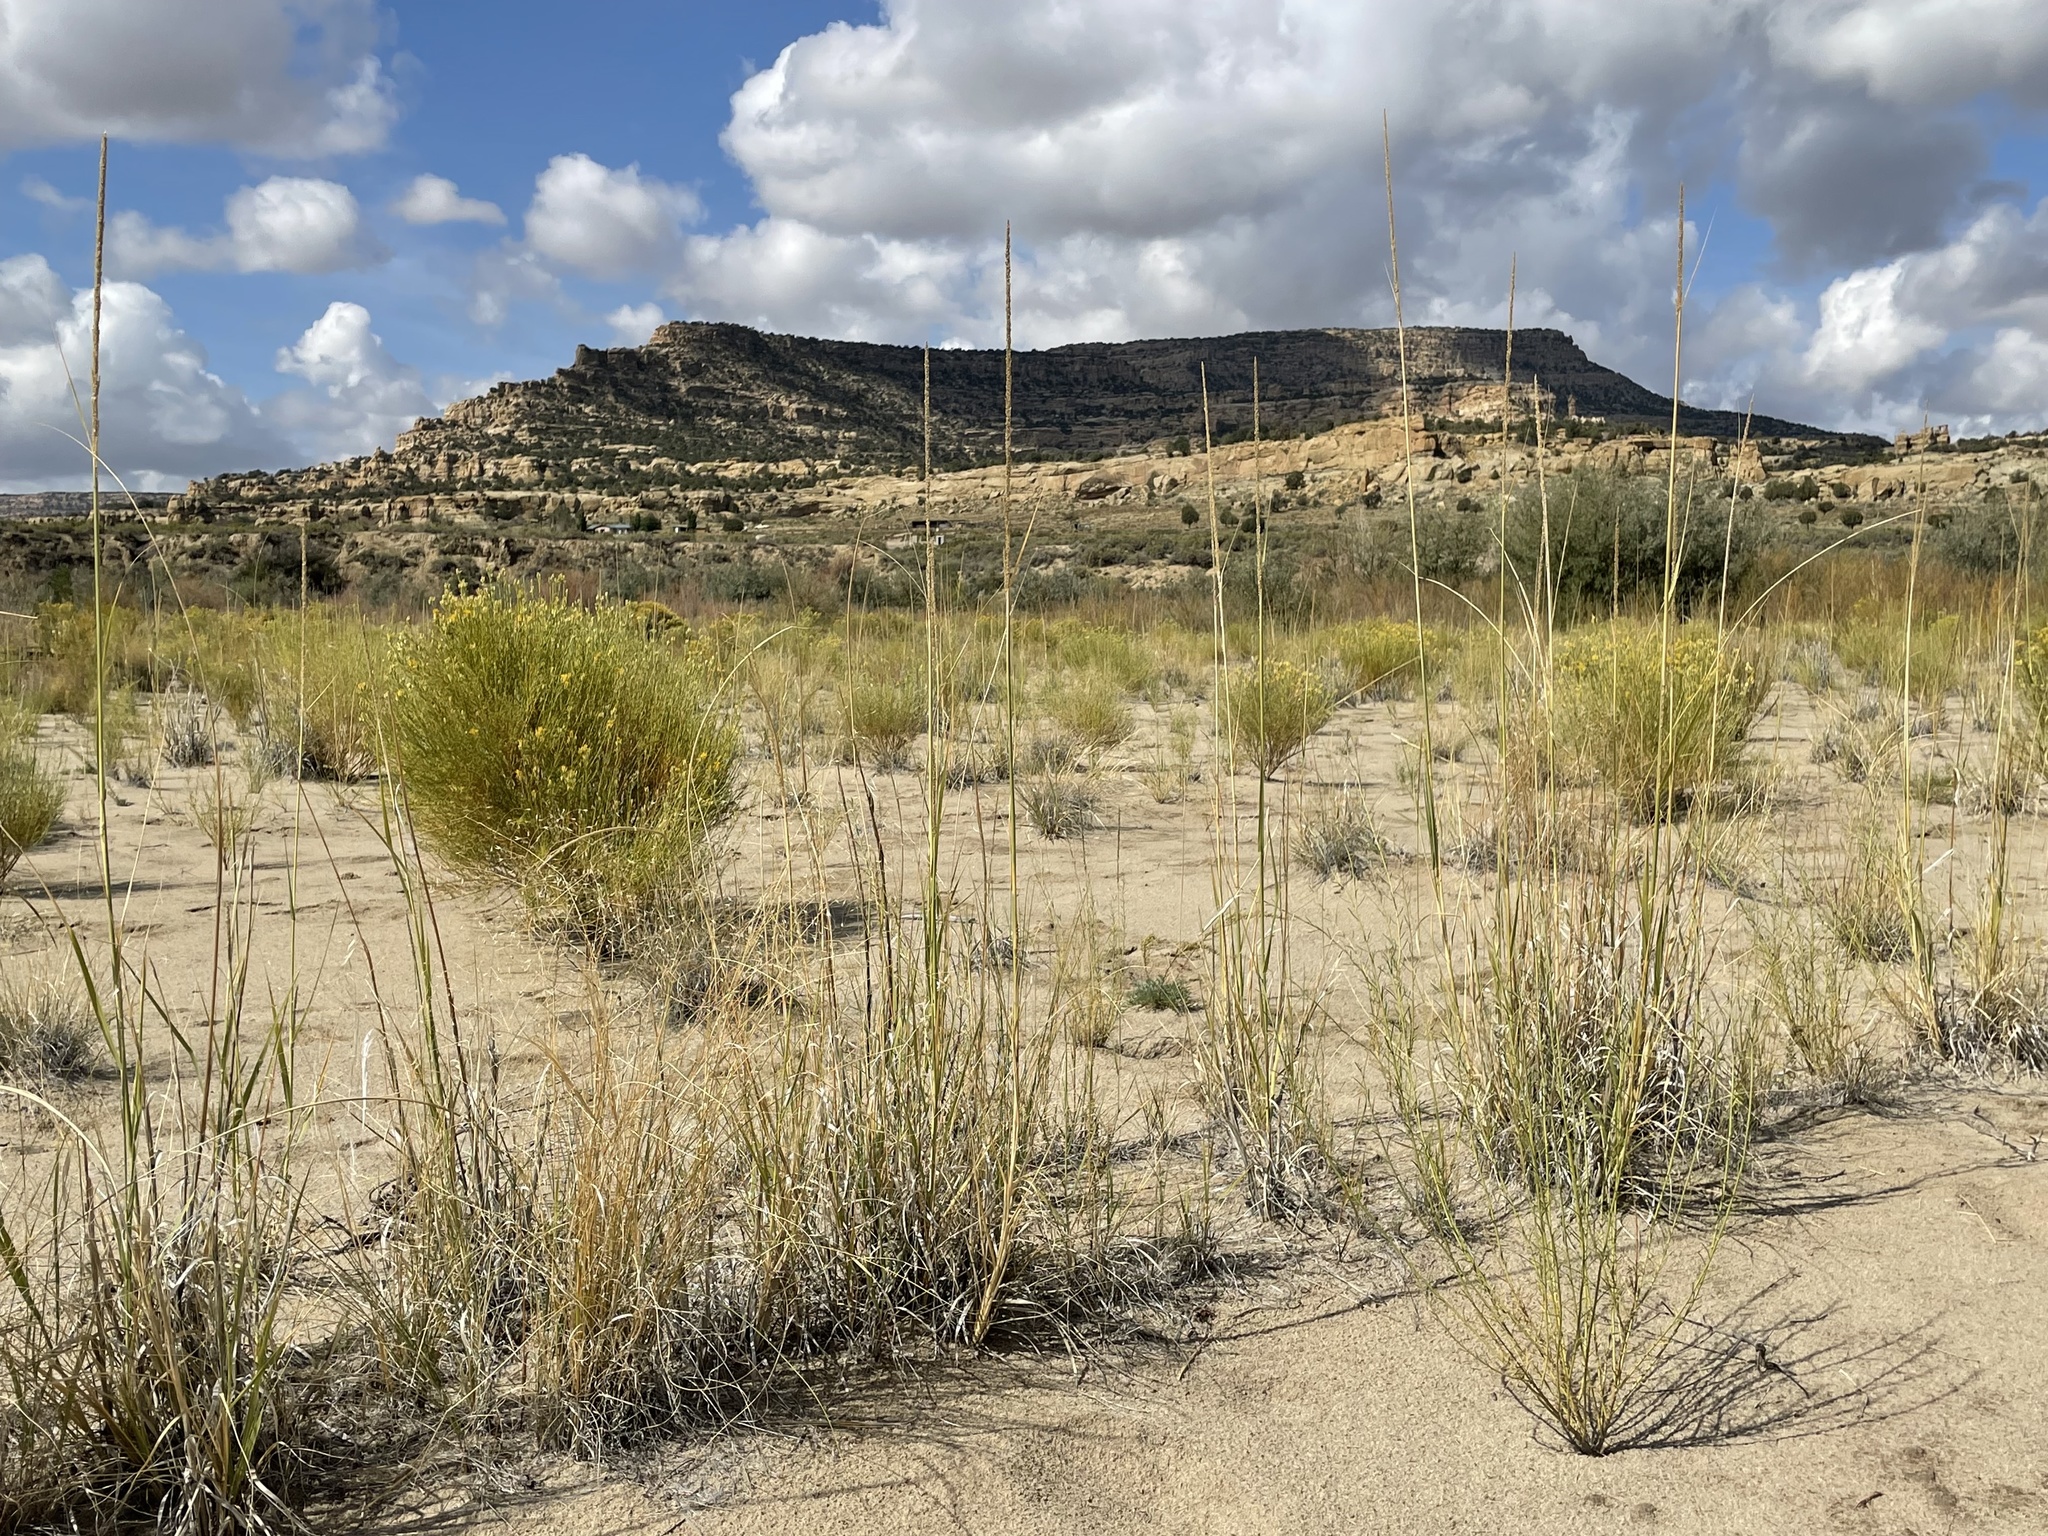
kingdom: Plantae
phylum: Tracheophyta
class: Liliopsida
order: Poales
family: Poaceae
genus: Sporobolus
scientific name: Sporobolus contractus
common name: Spike dropseed
